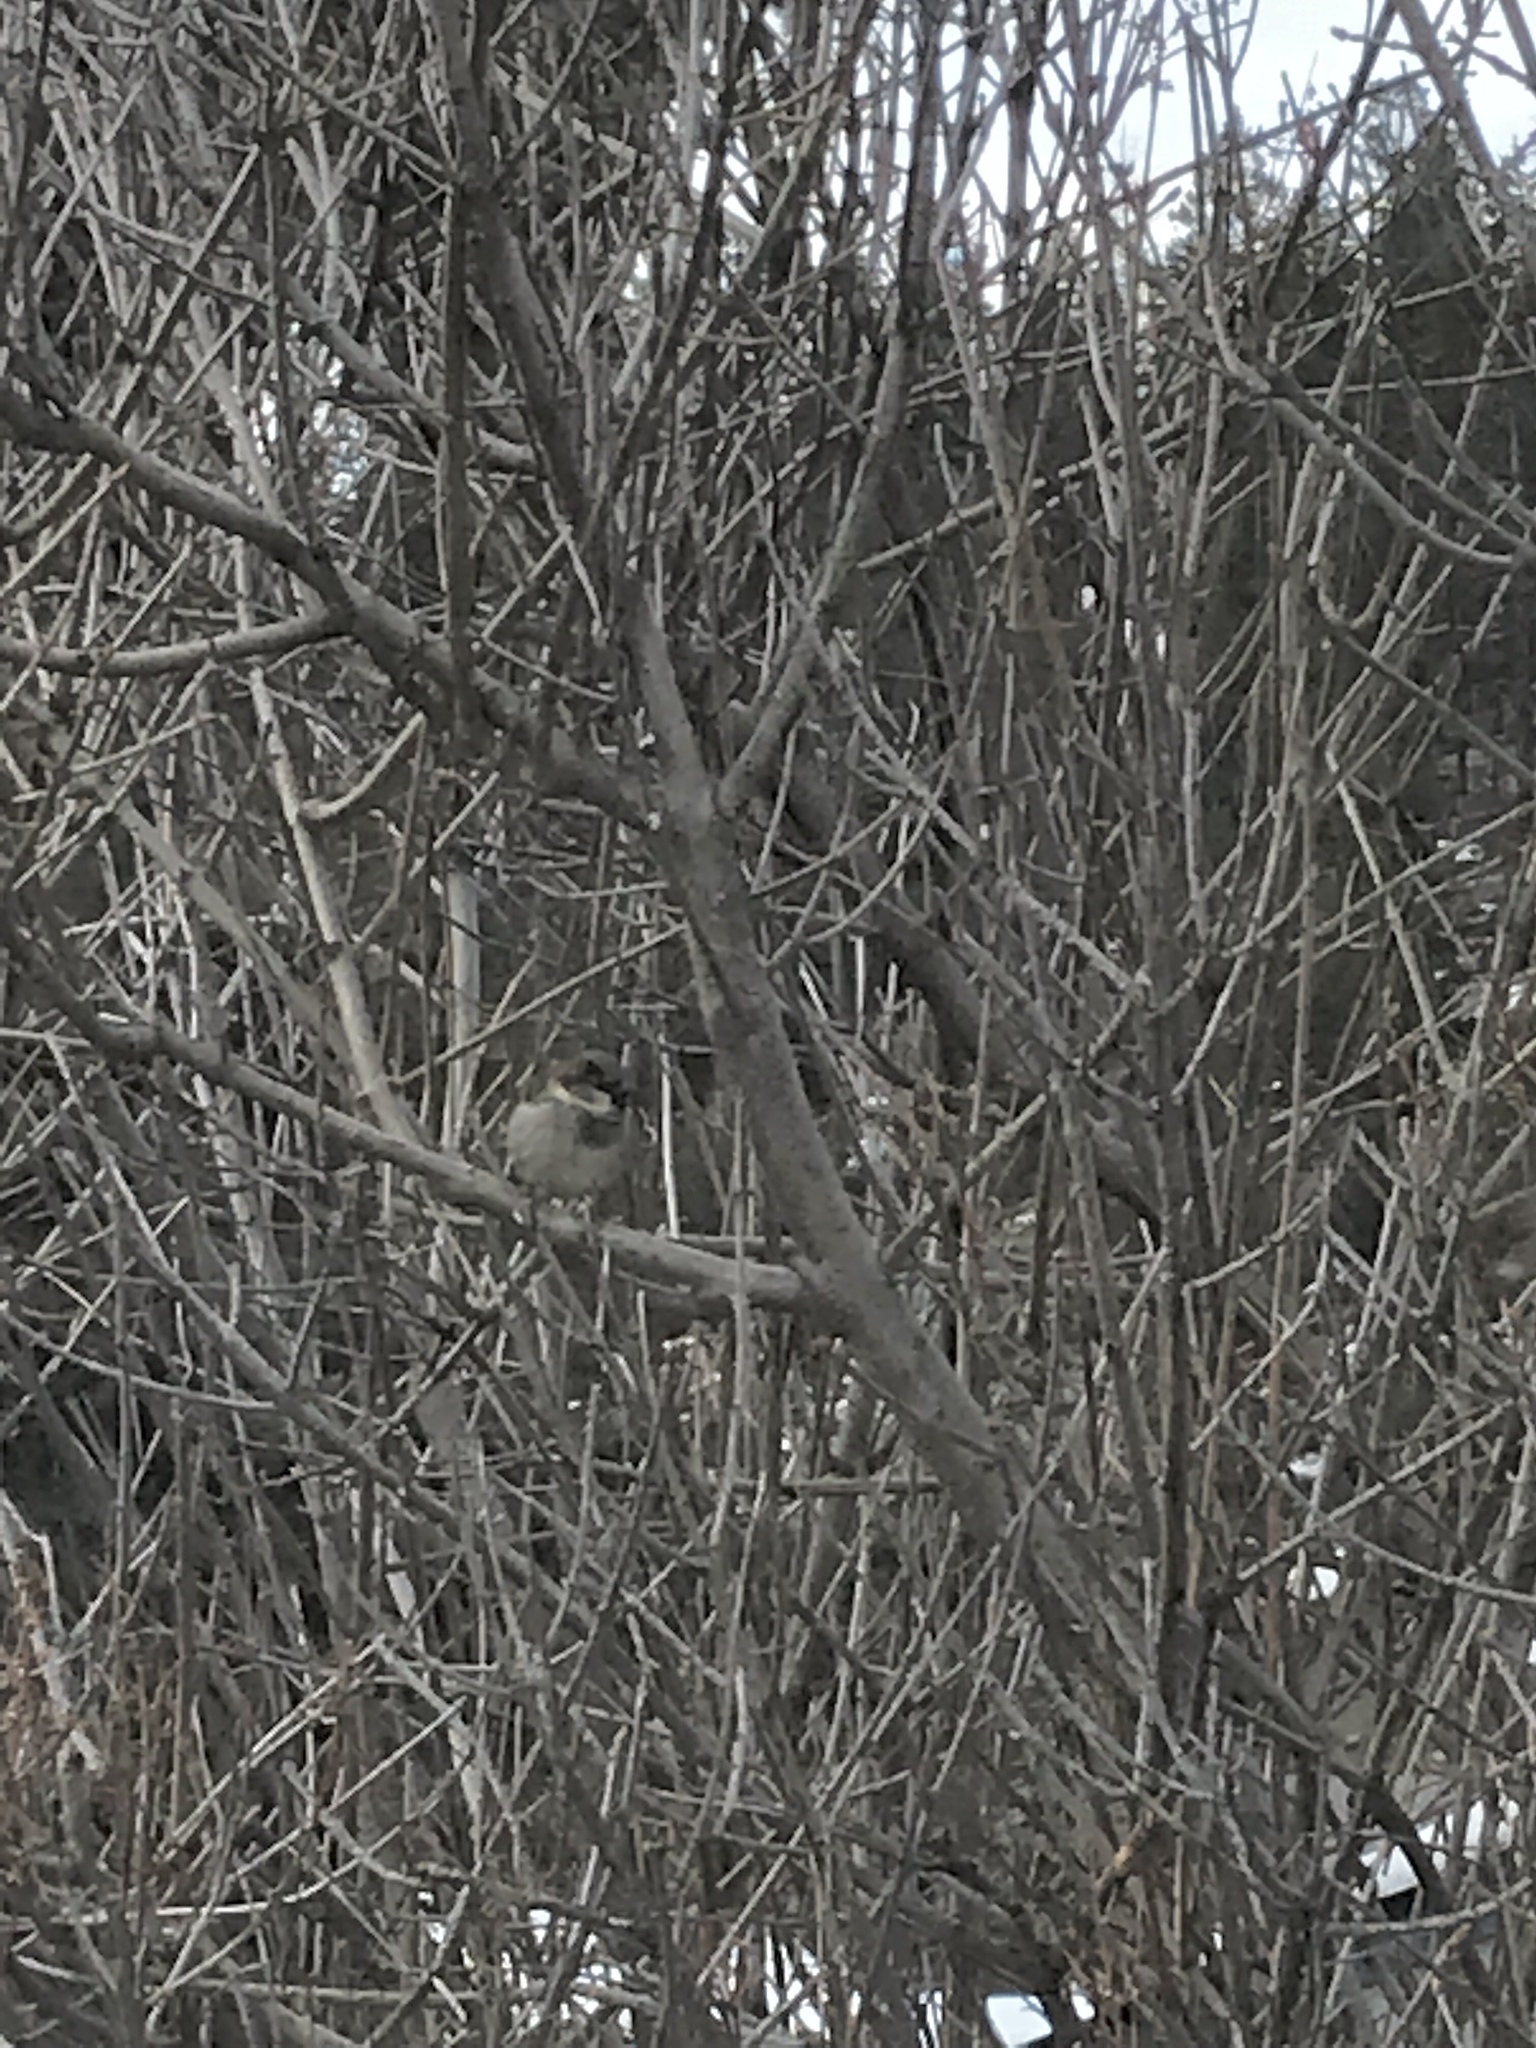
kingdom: Animalia
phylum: Chordata
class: Aves
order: Passeriformes
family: Passeridae
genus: Passer
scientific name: Passer domesticus
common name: House sparrow
